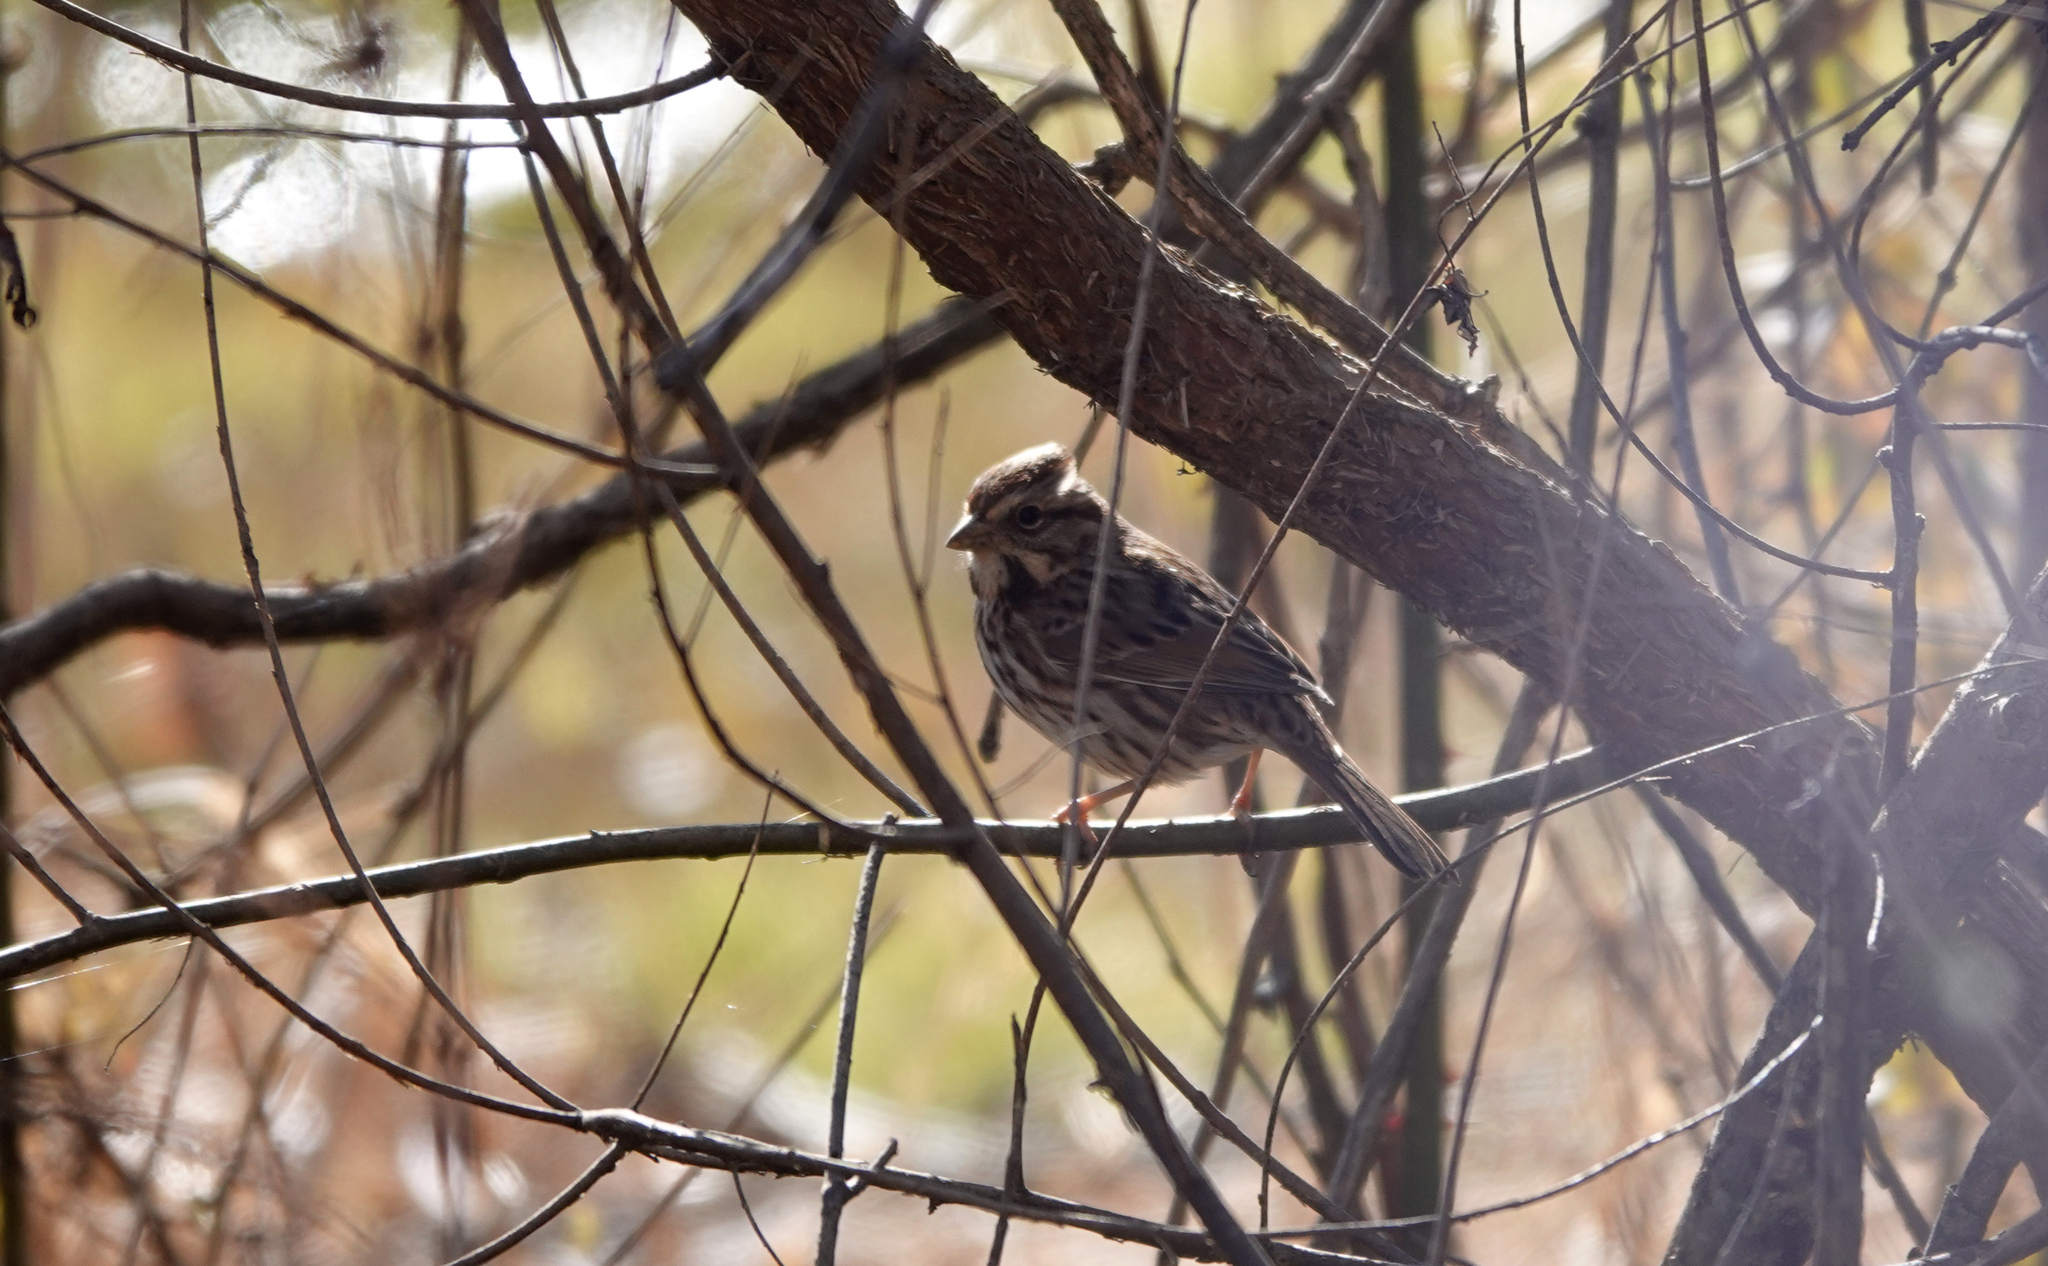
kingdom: Animalia
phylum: Chordata
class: Aves
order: Passeriformes
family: Passerellidae
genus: Melospiza
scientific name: Melospiza melodia
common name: Song sparrow
